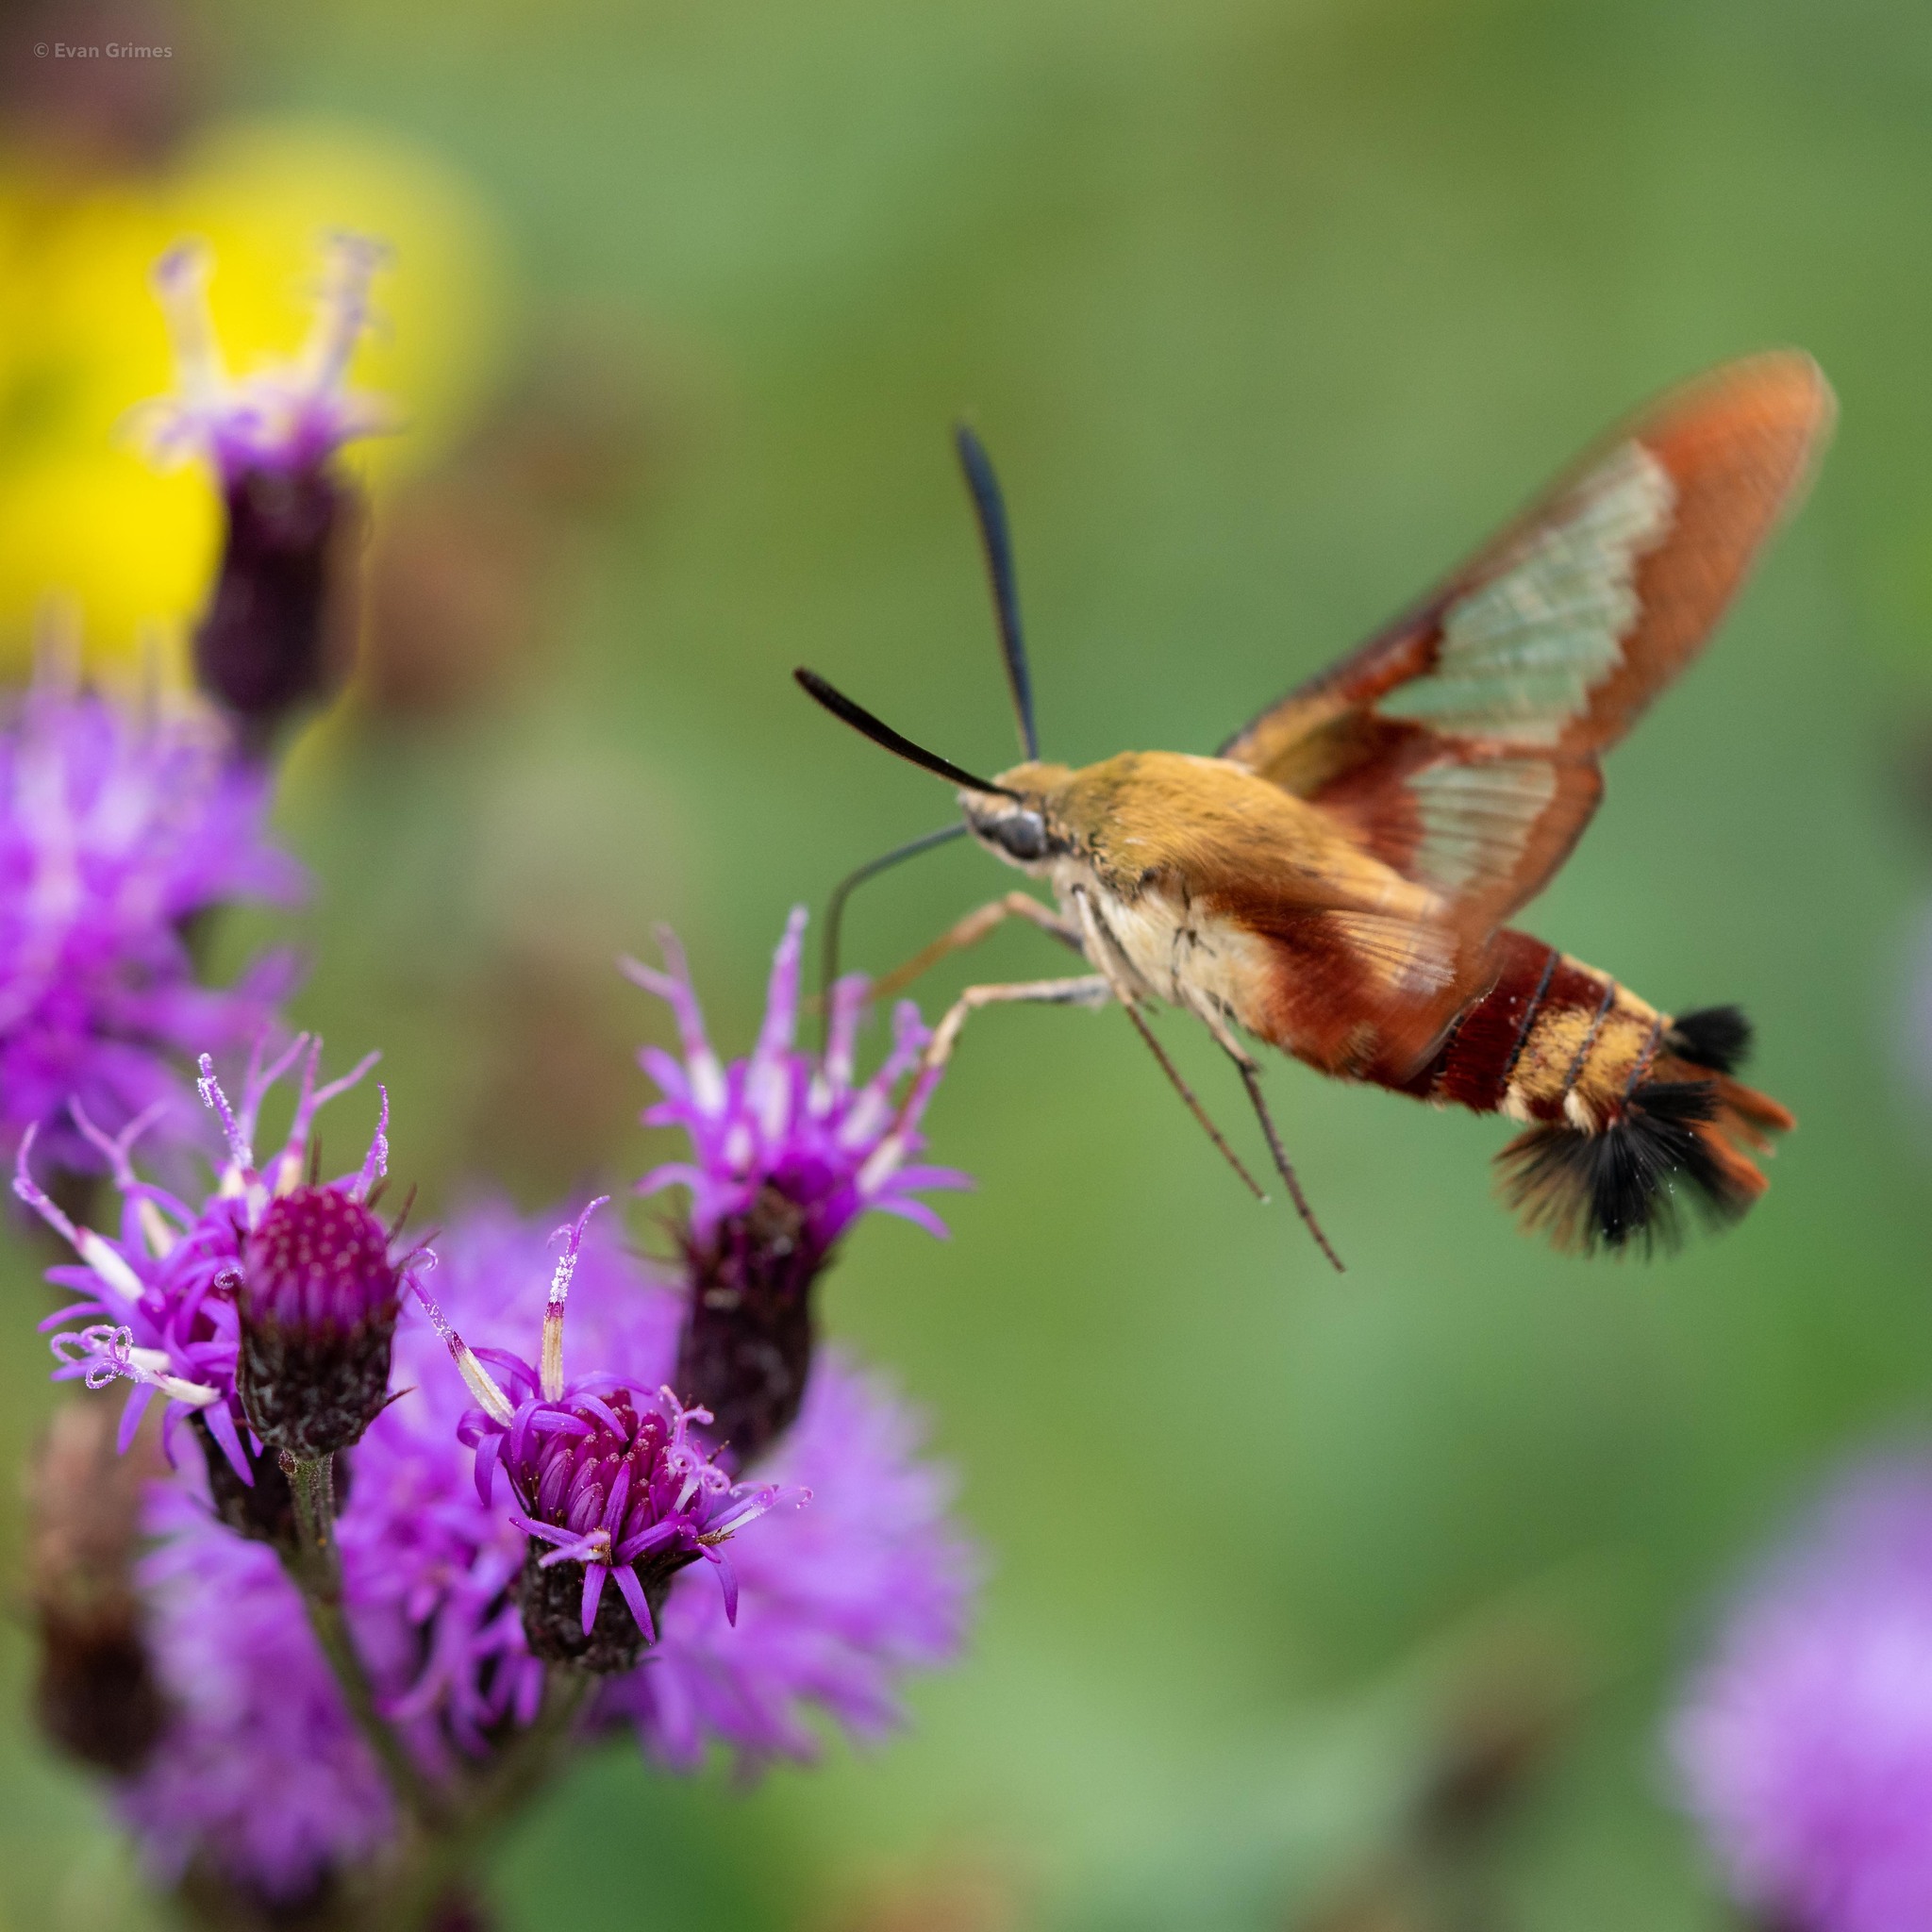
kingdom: Animalia
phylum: Arthropoda
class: Insecta
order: Lepidoptera
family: Sphingidae
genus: Hemaris
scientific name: Hemaris thysbe
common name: Common clear-wing
